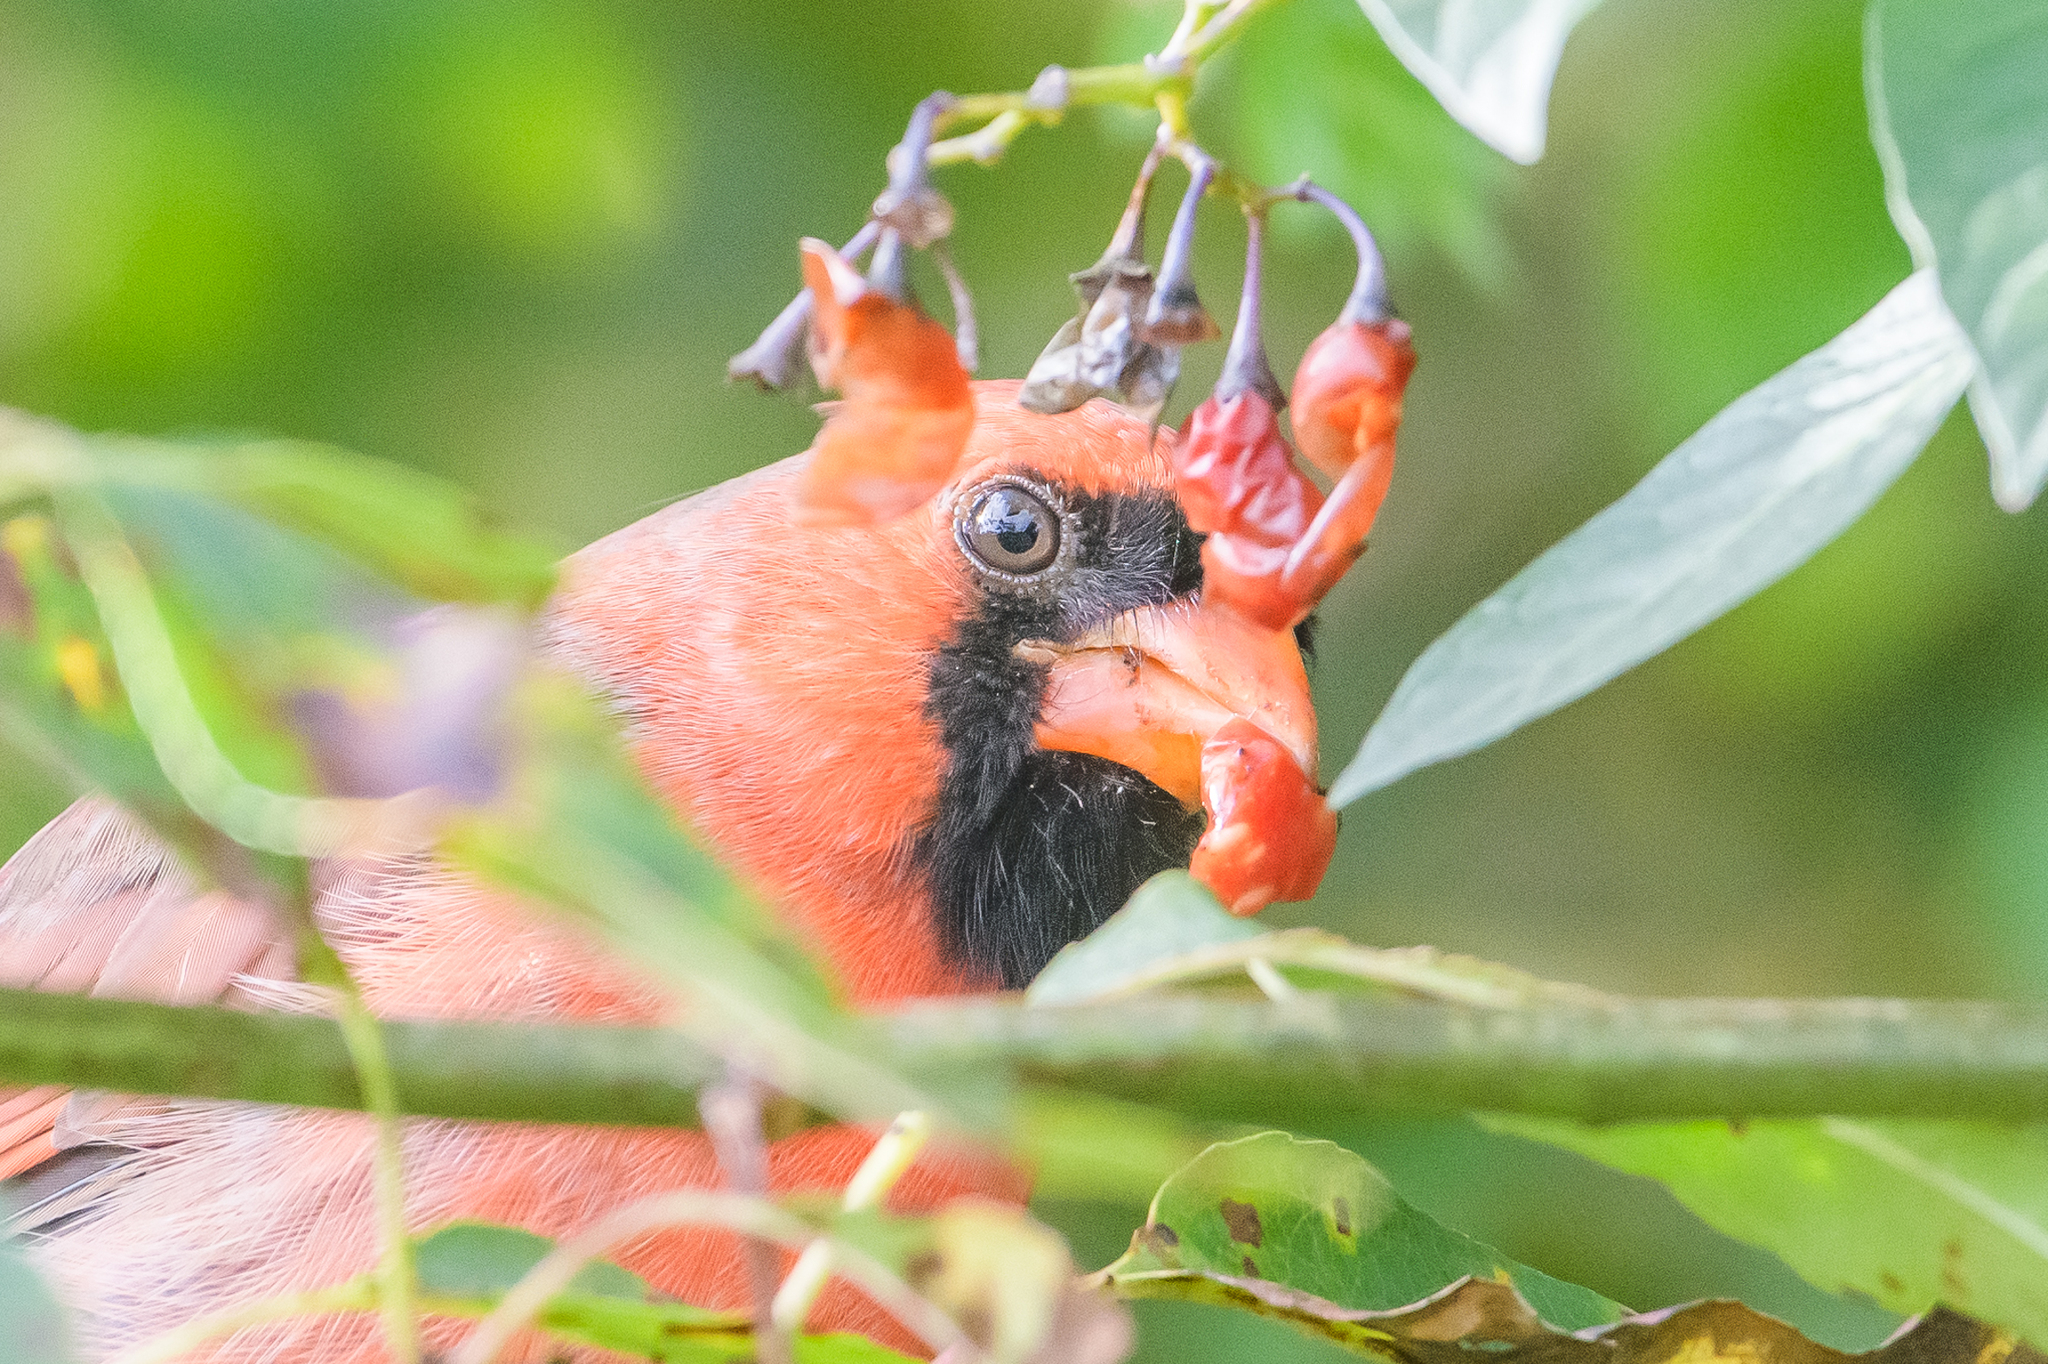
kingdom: Animalia
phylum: Chordata
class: Aves
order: Passeriformes
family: Cardinalidae
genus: Cardinalis
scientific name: Cardinalis cardinalis
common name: Northern cardinal
